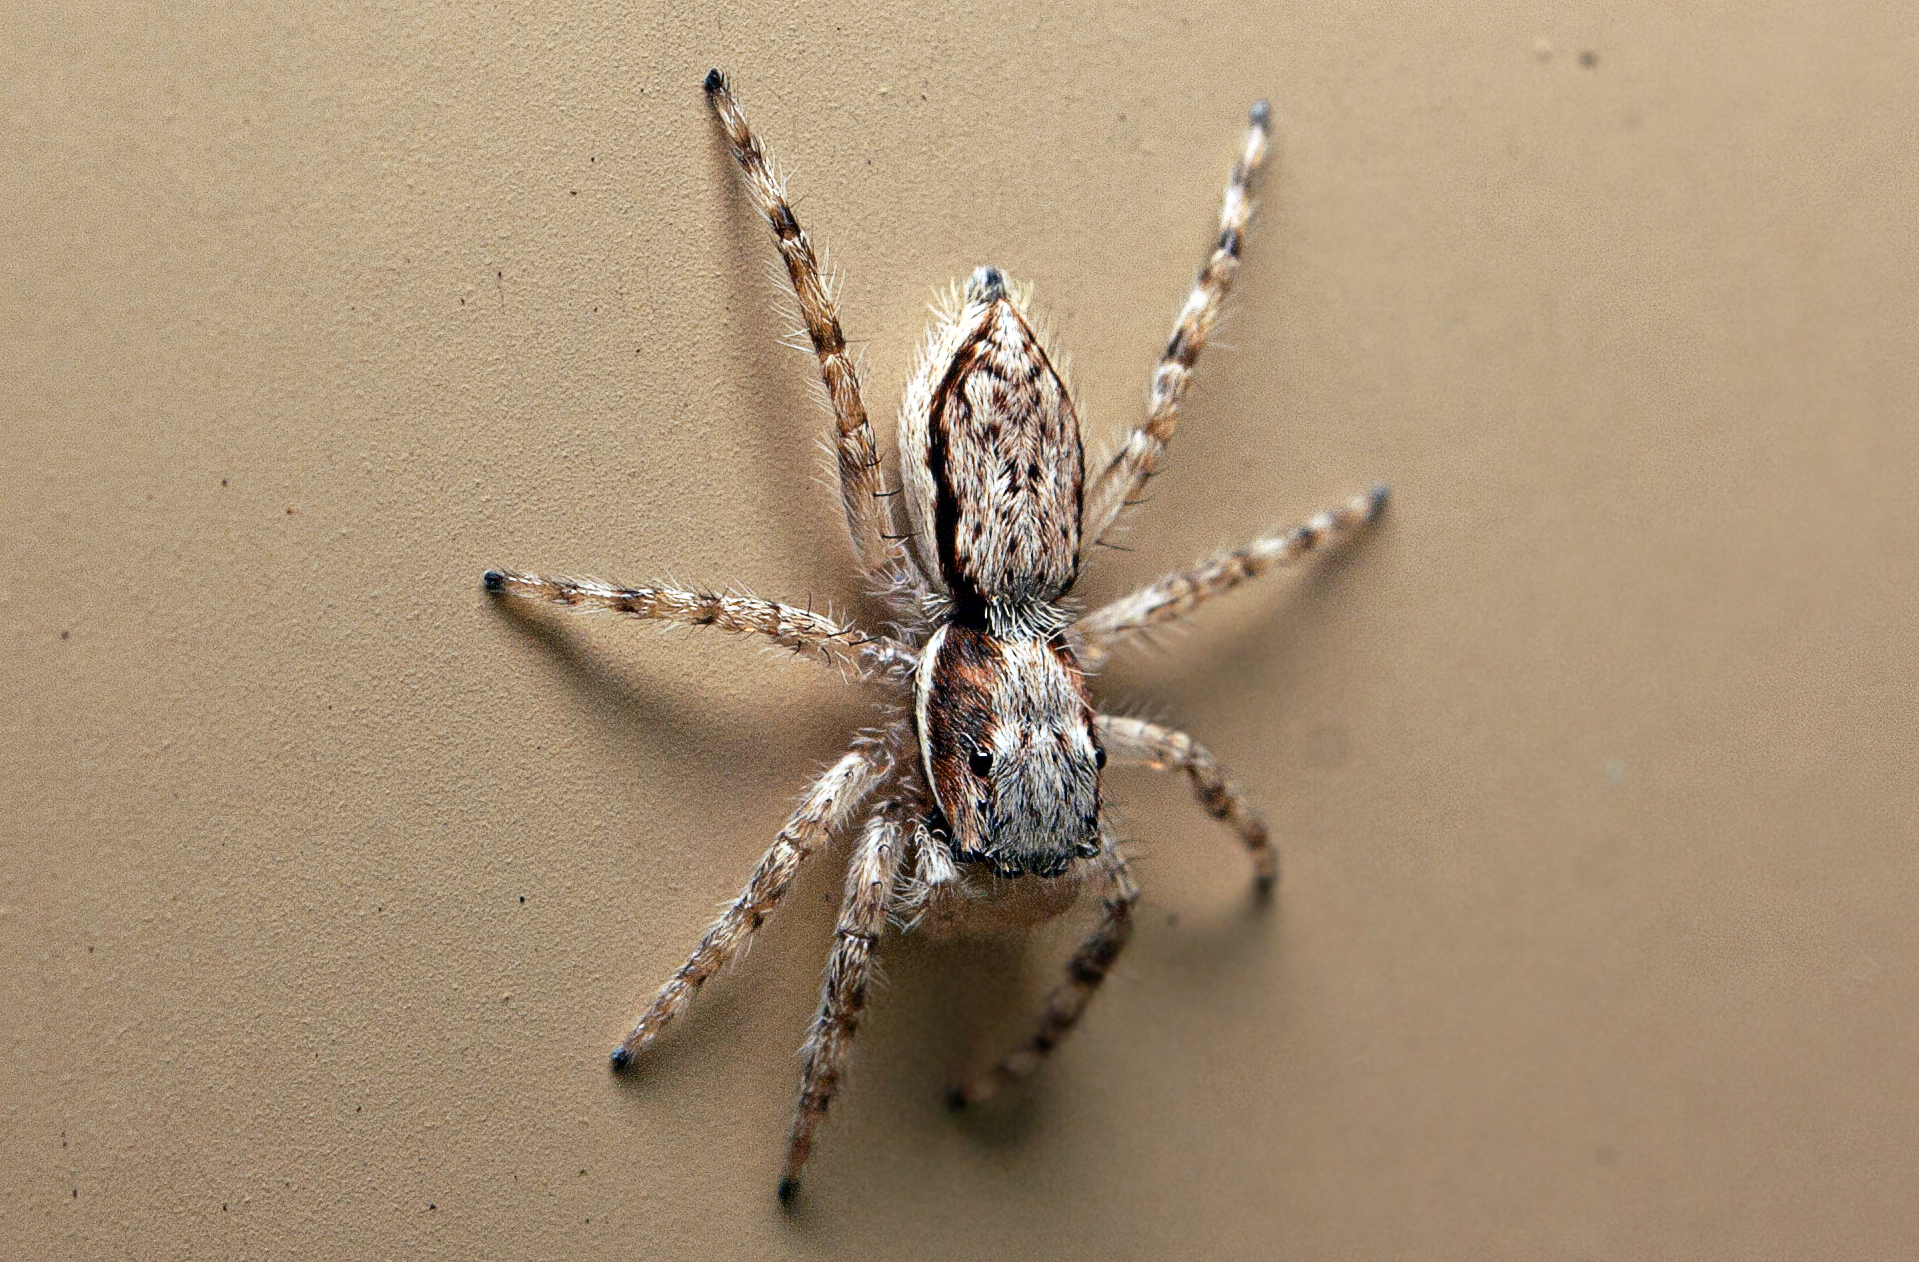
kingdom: Animalia
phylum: Arthropoda
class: Arachnida
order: Araneae
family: Salticidae
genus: Menemerus
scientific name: Menemerus bivittatus
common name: Gray wall jumper
